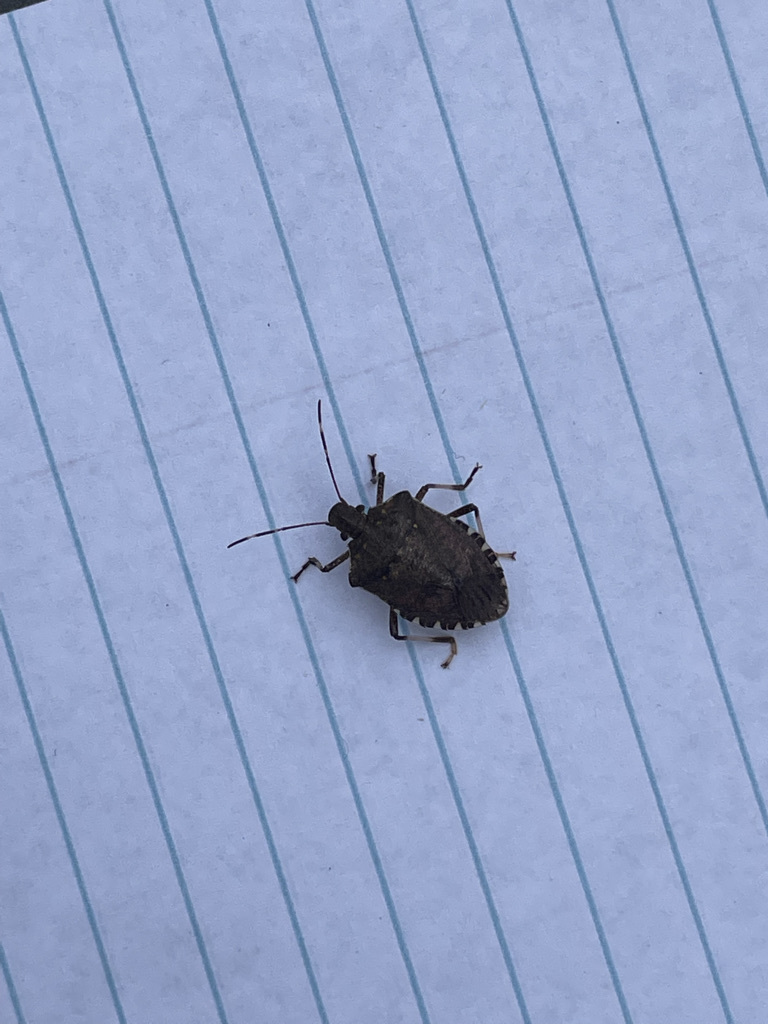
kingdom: Animalia
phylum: Arthropoda
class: Insecta
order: Hemiptera
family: Pentatomidae
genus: Halyomorpha
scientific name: Halyomorpha halys
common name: Brown marmorated stink bug
